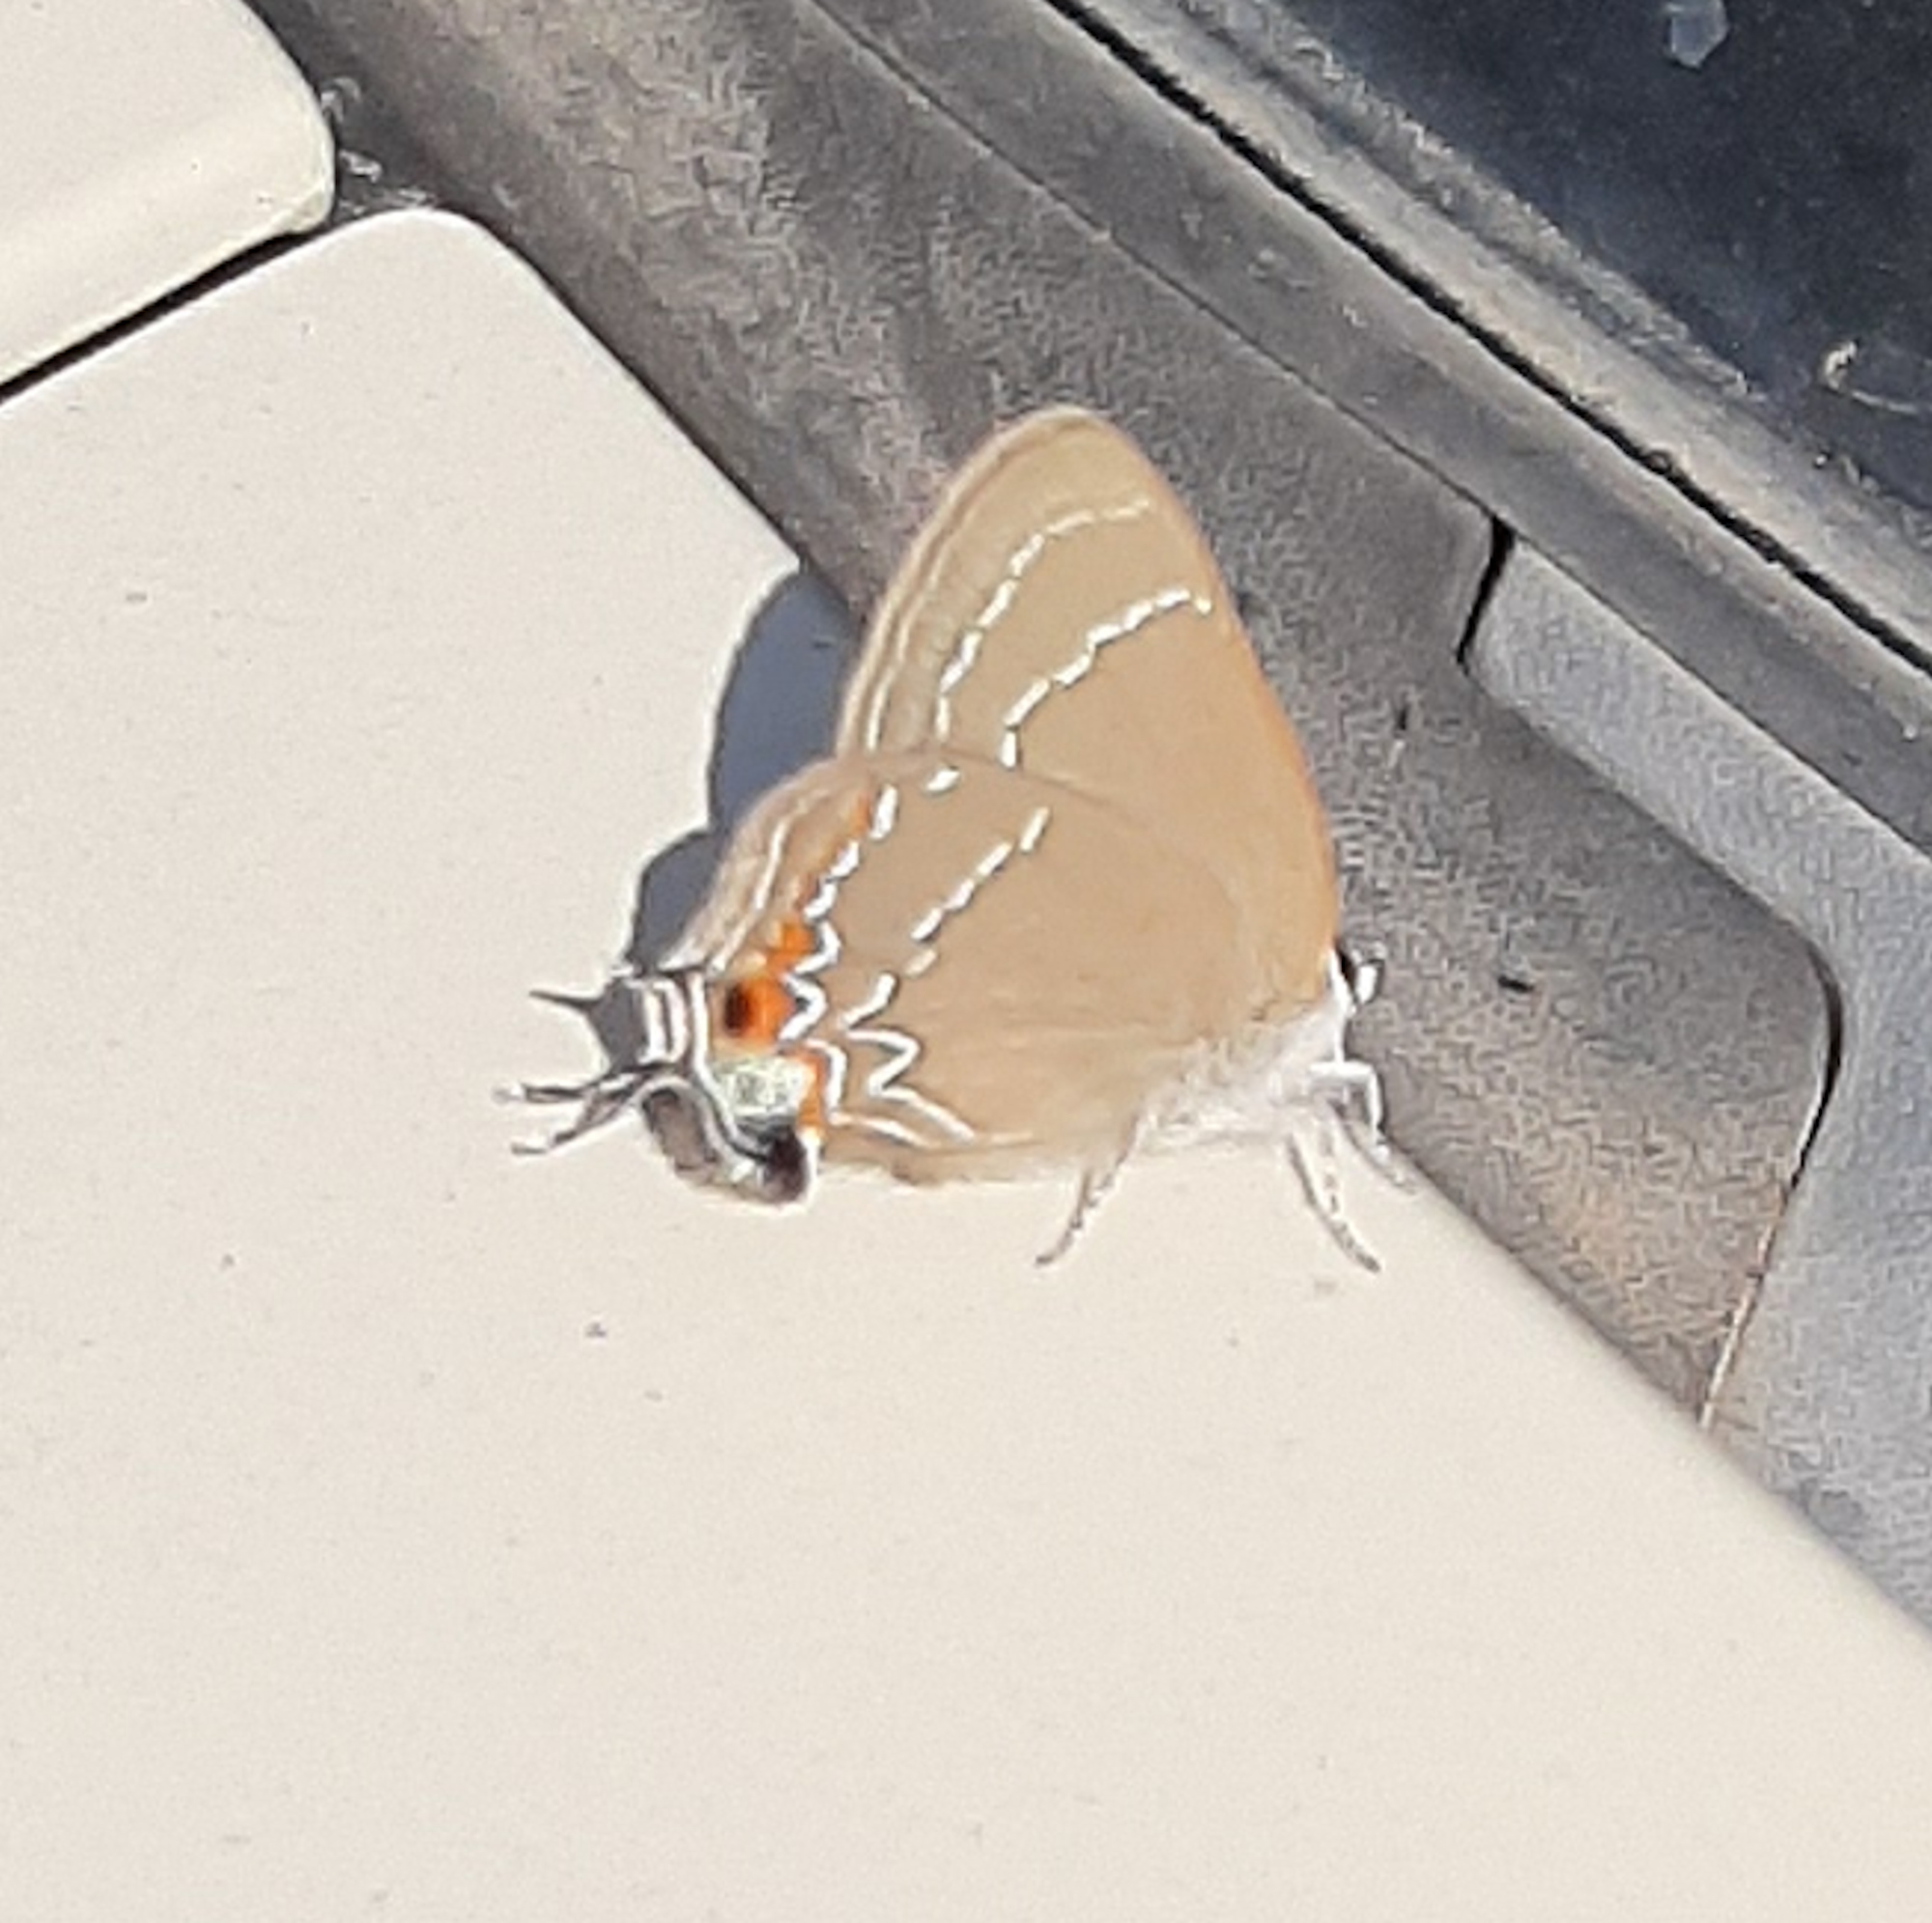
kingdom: Animalia
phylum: Arthropoda
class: Insecta
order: Lepidoptera
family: Lycaenidae
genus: Fixsenia
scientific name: Fixsenia favonius
